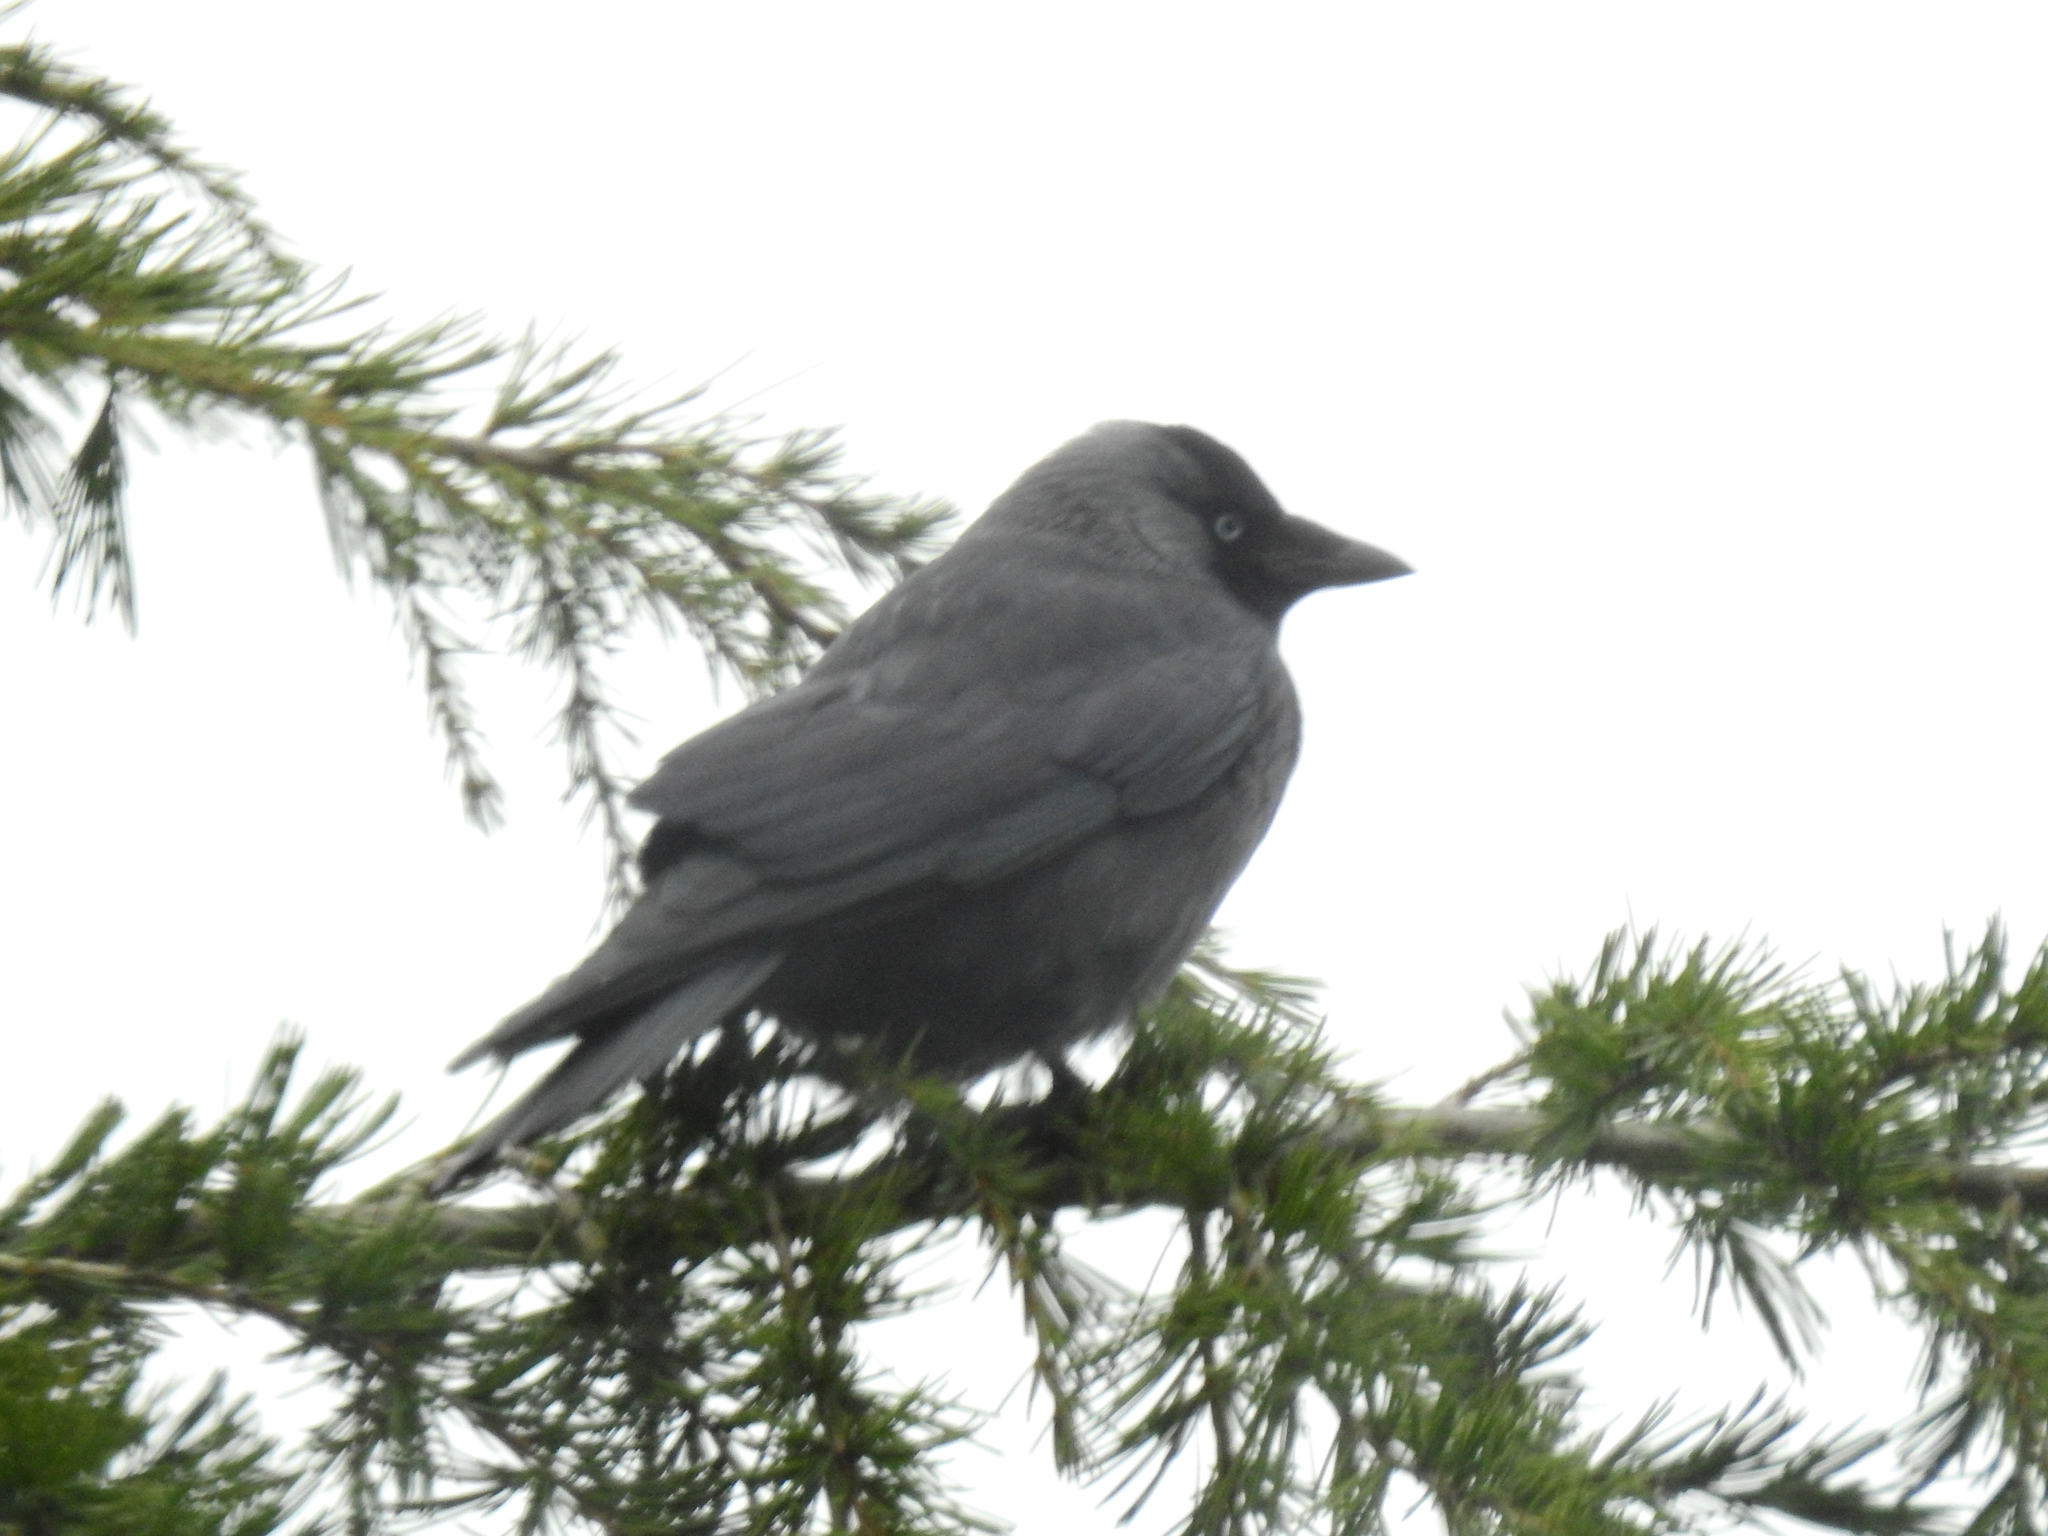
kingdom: Animalia
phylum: Chordata
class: Aves
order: Passeriformes
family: Corvidae
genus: Coloeus
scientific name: Coloeus monedula
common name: Western jackdaw
